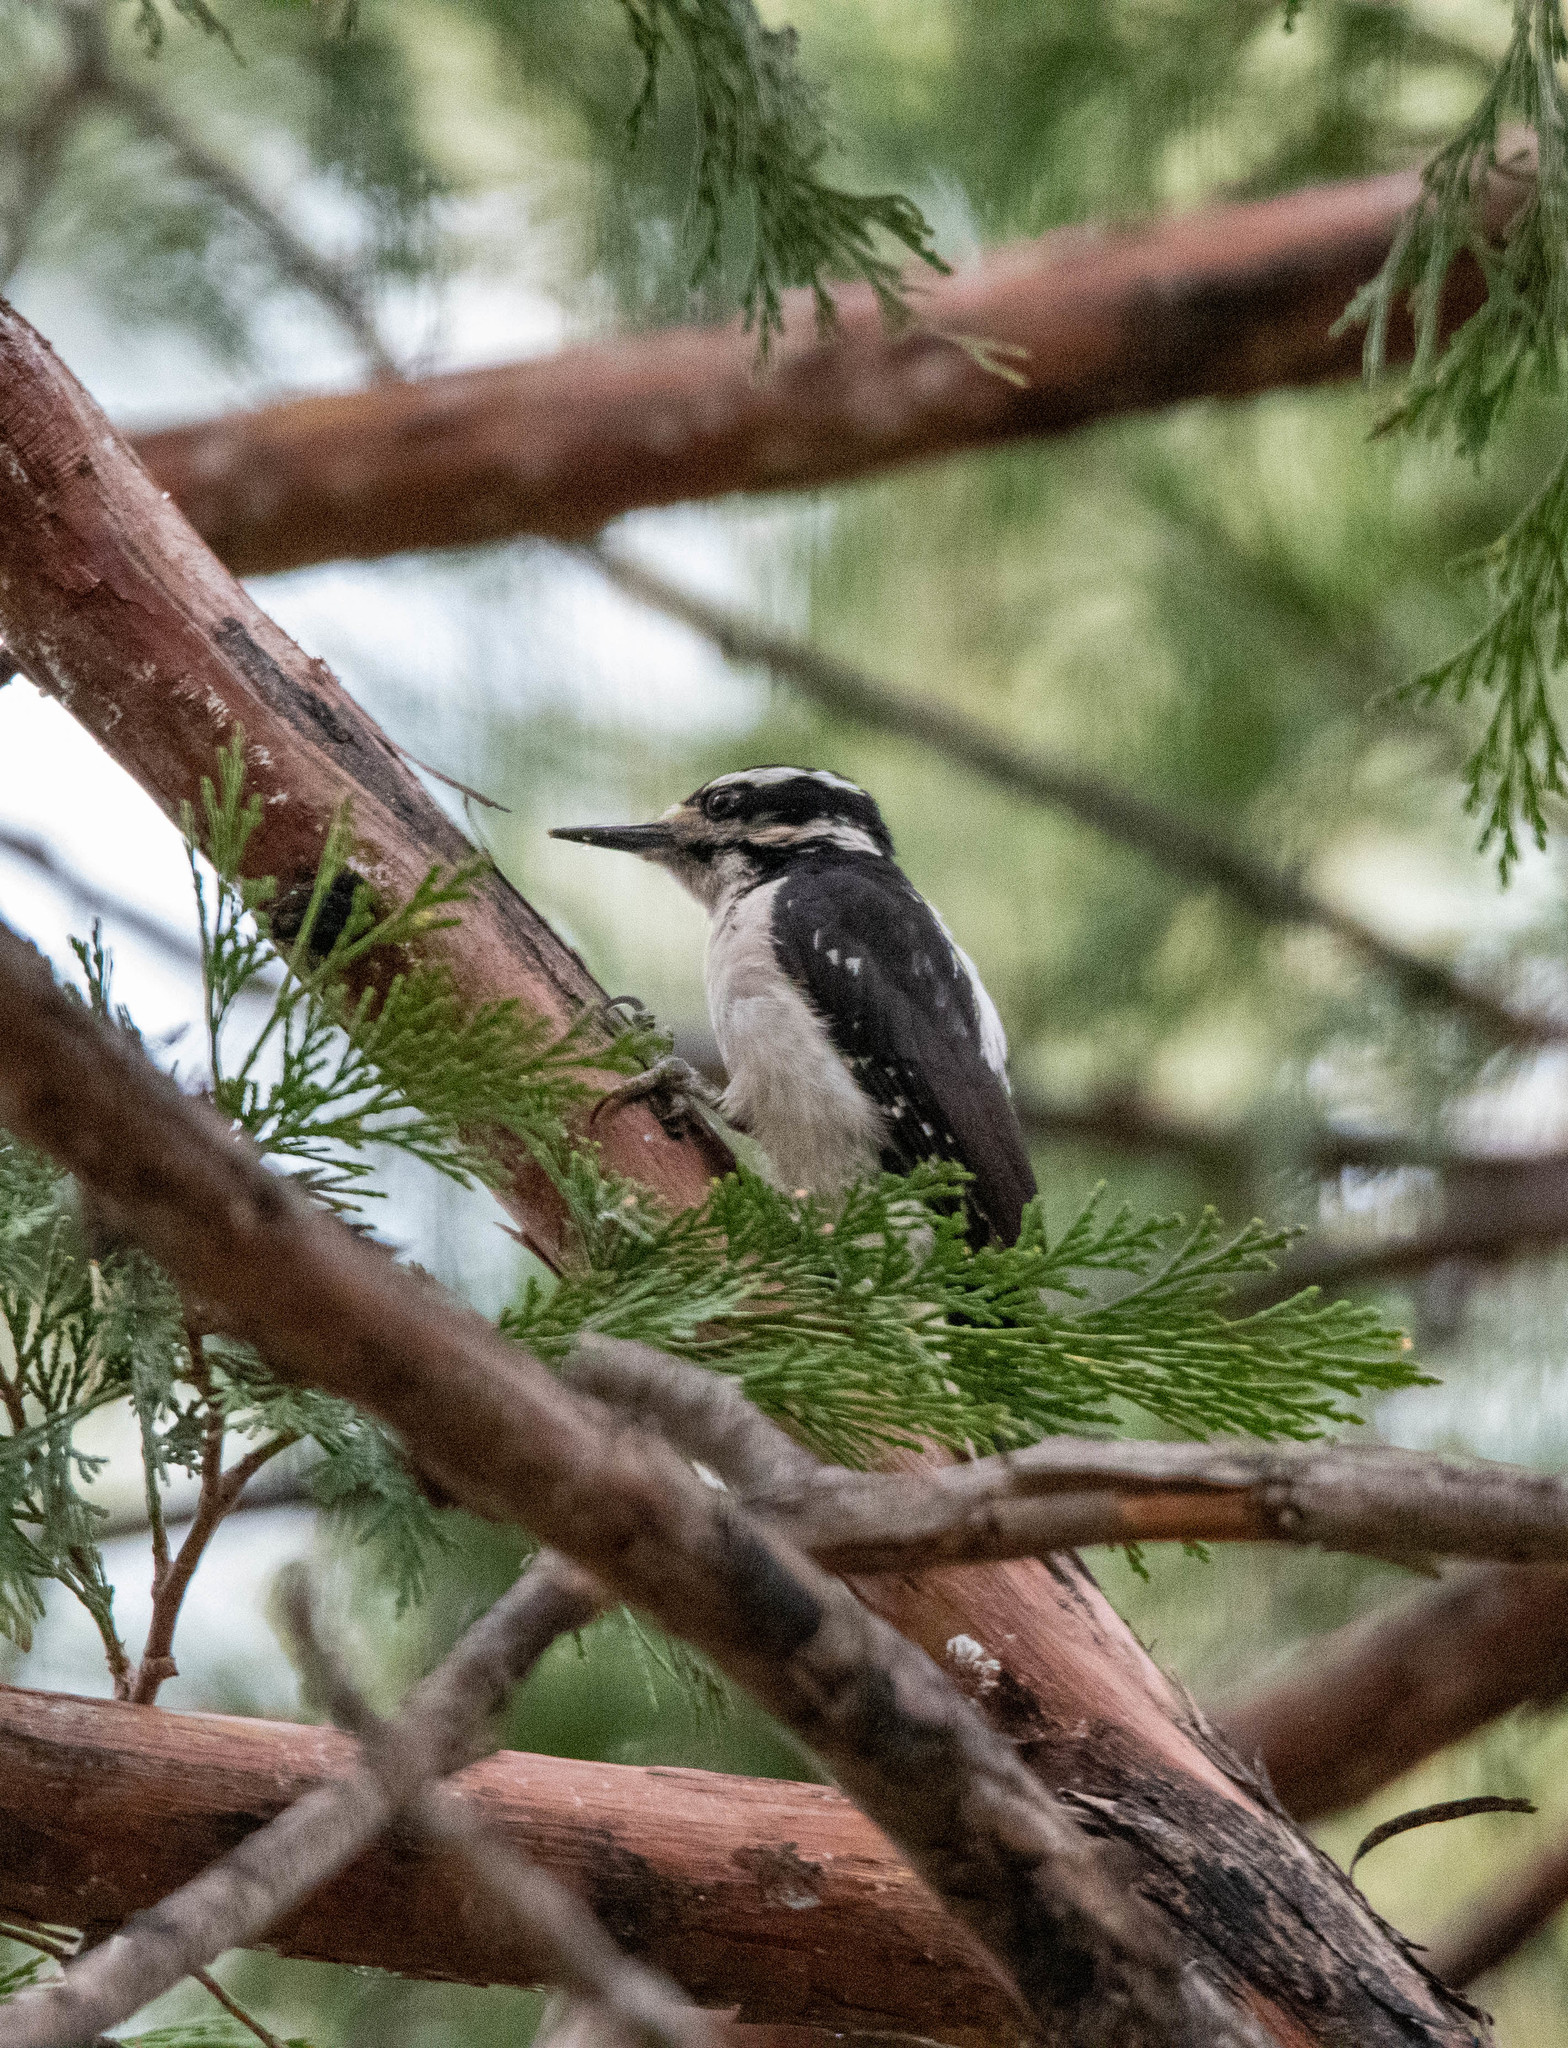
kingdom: Animalia
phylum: Chordata
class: Aves
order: Piciformes
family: Picidae
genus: Leuconotopicus
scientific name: Leuconotopicus villosus
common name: Hairy woodpecker
